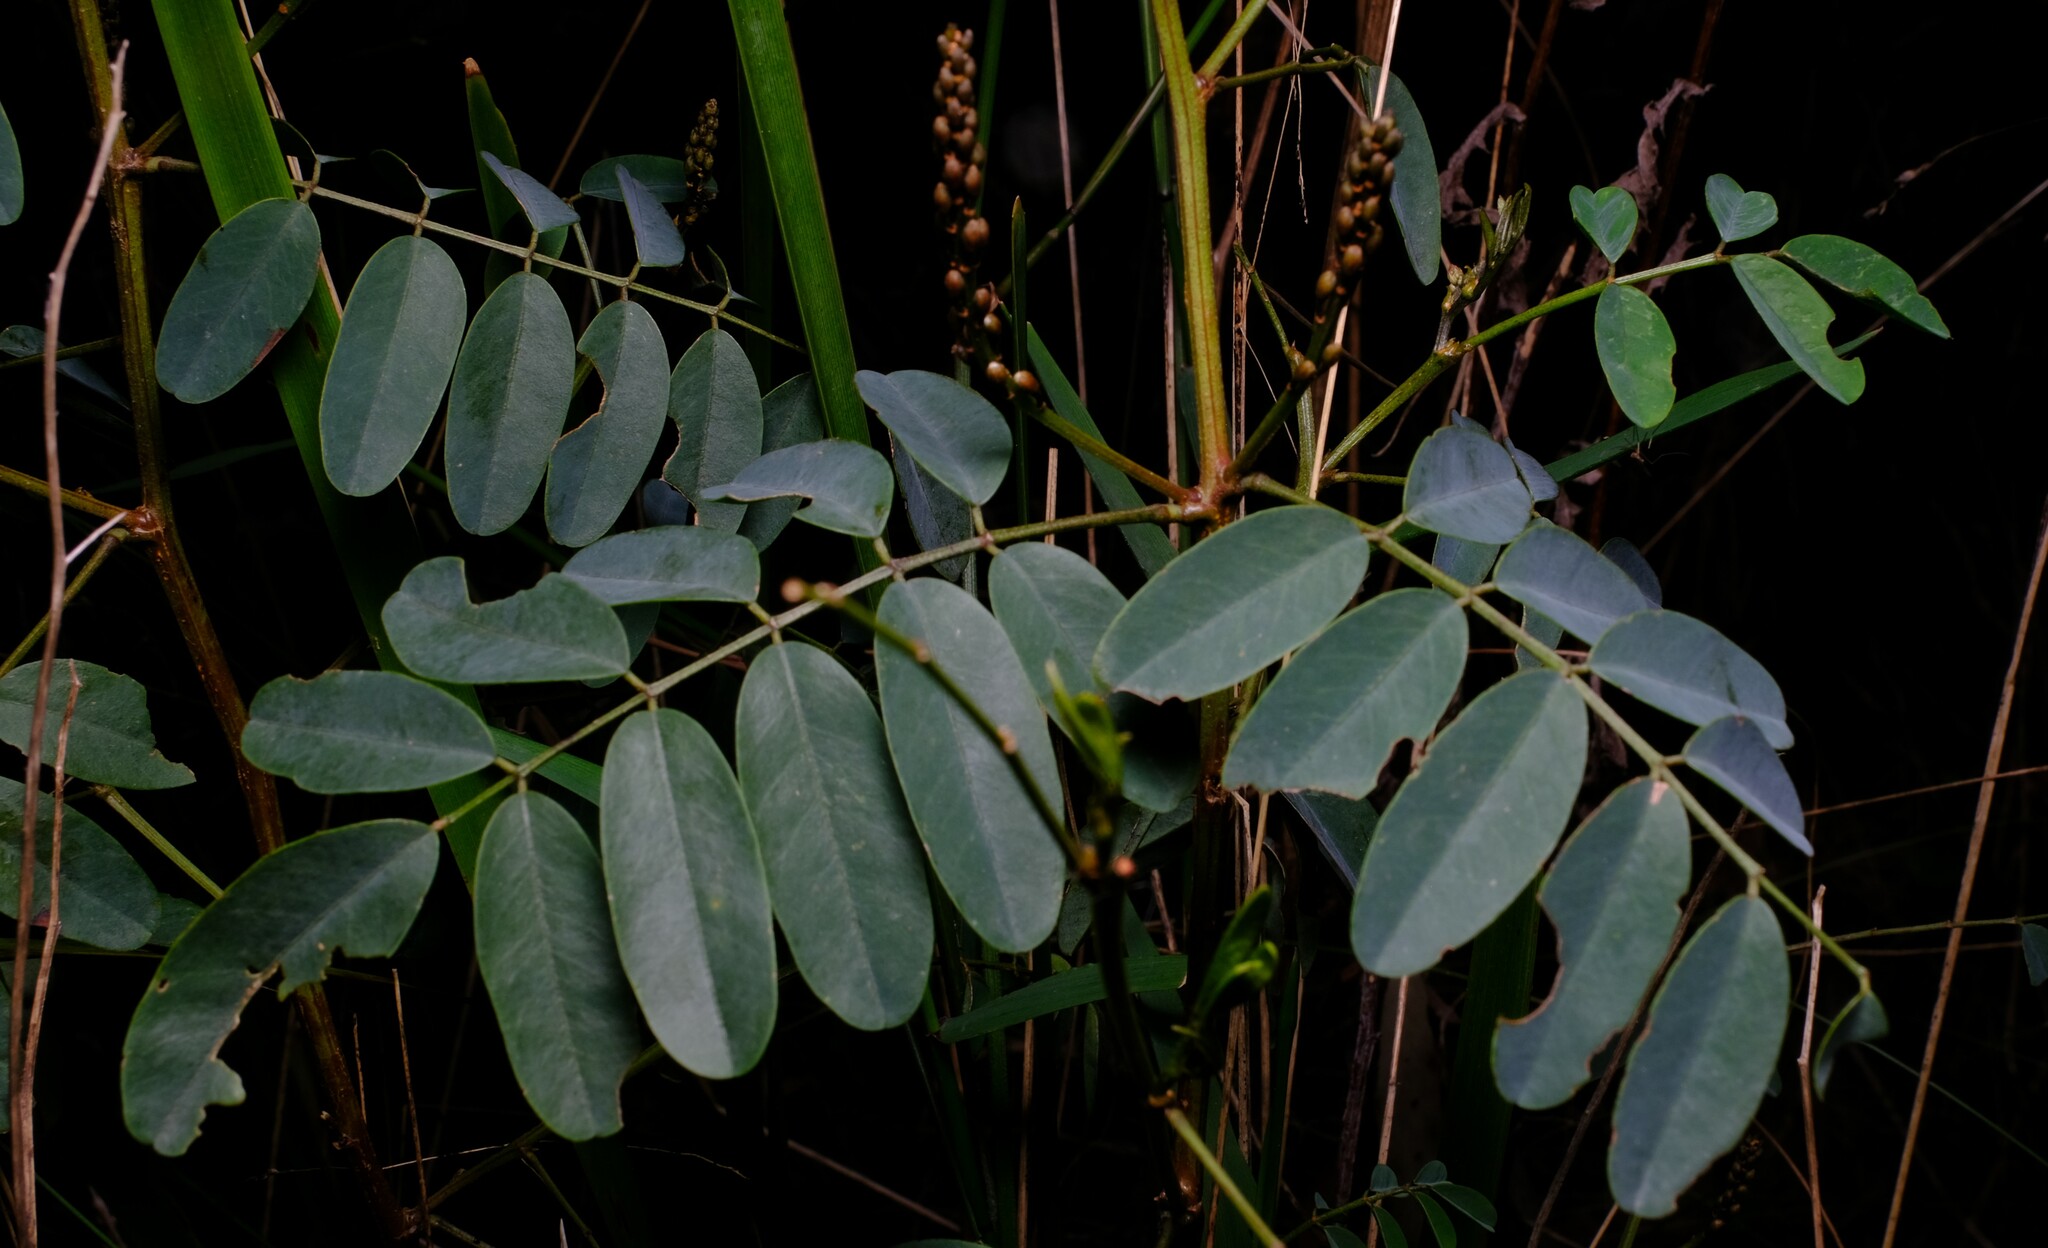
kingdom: Plantae
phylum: Tracheophyta
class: Magnoliopsida
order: Fabales
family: Fabaceae
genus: Indigofera
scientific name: Indigofera australis
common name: Australian indigo
